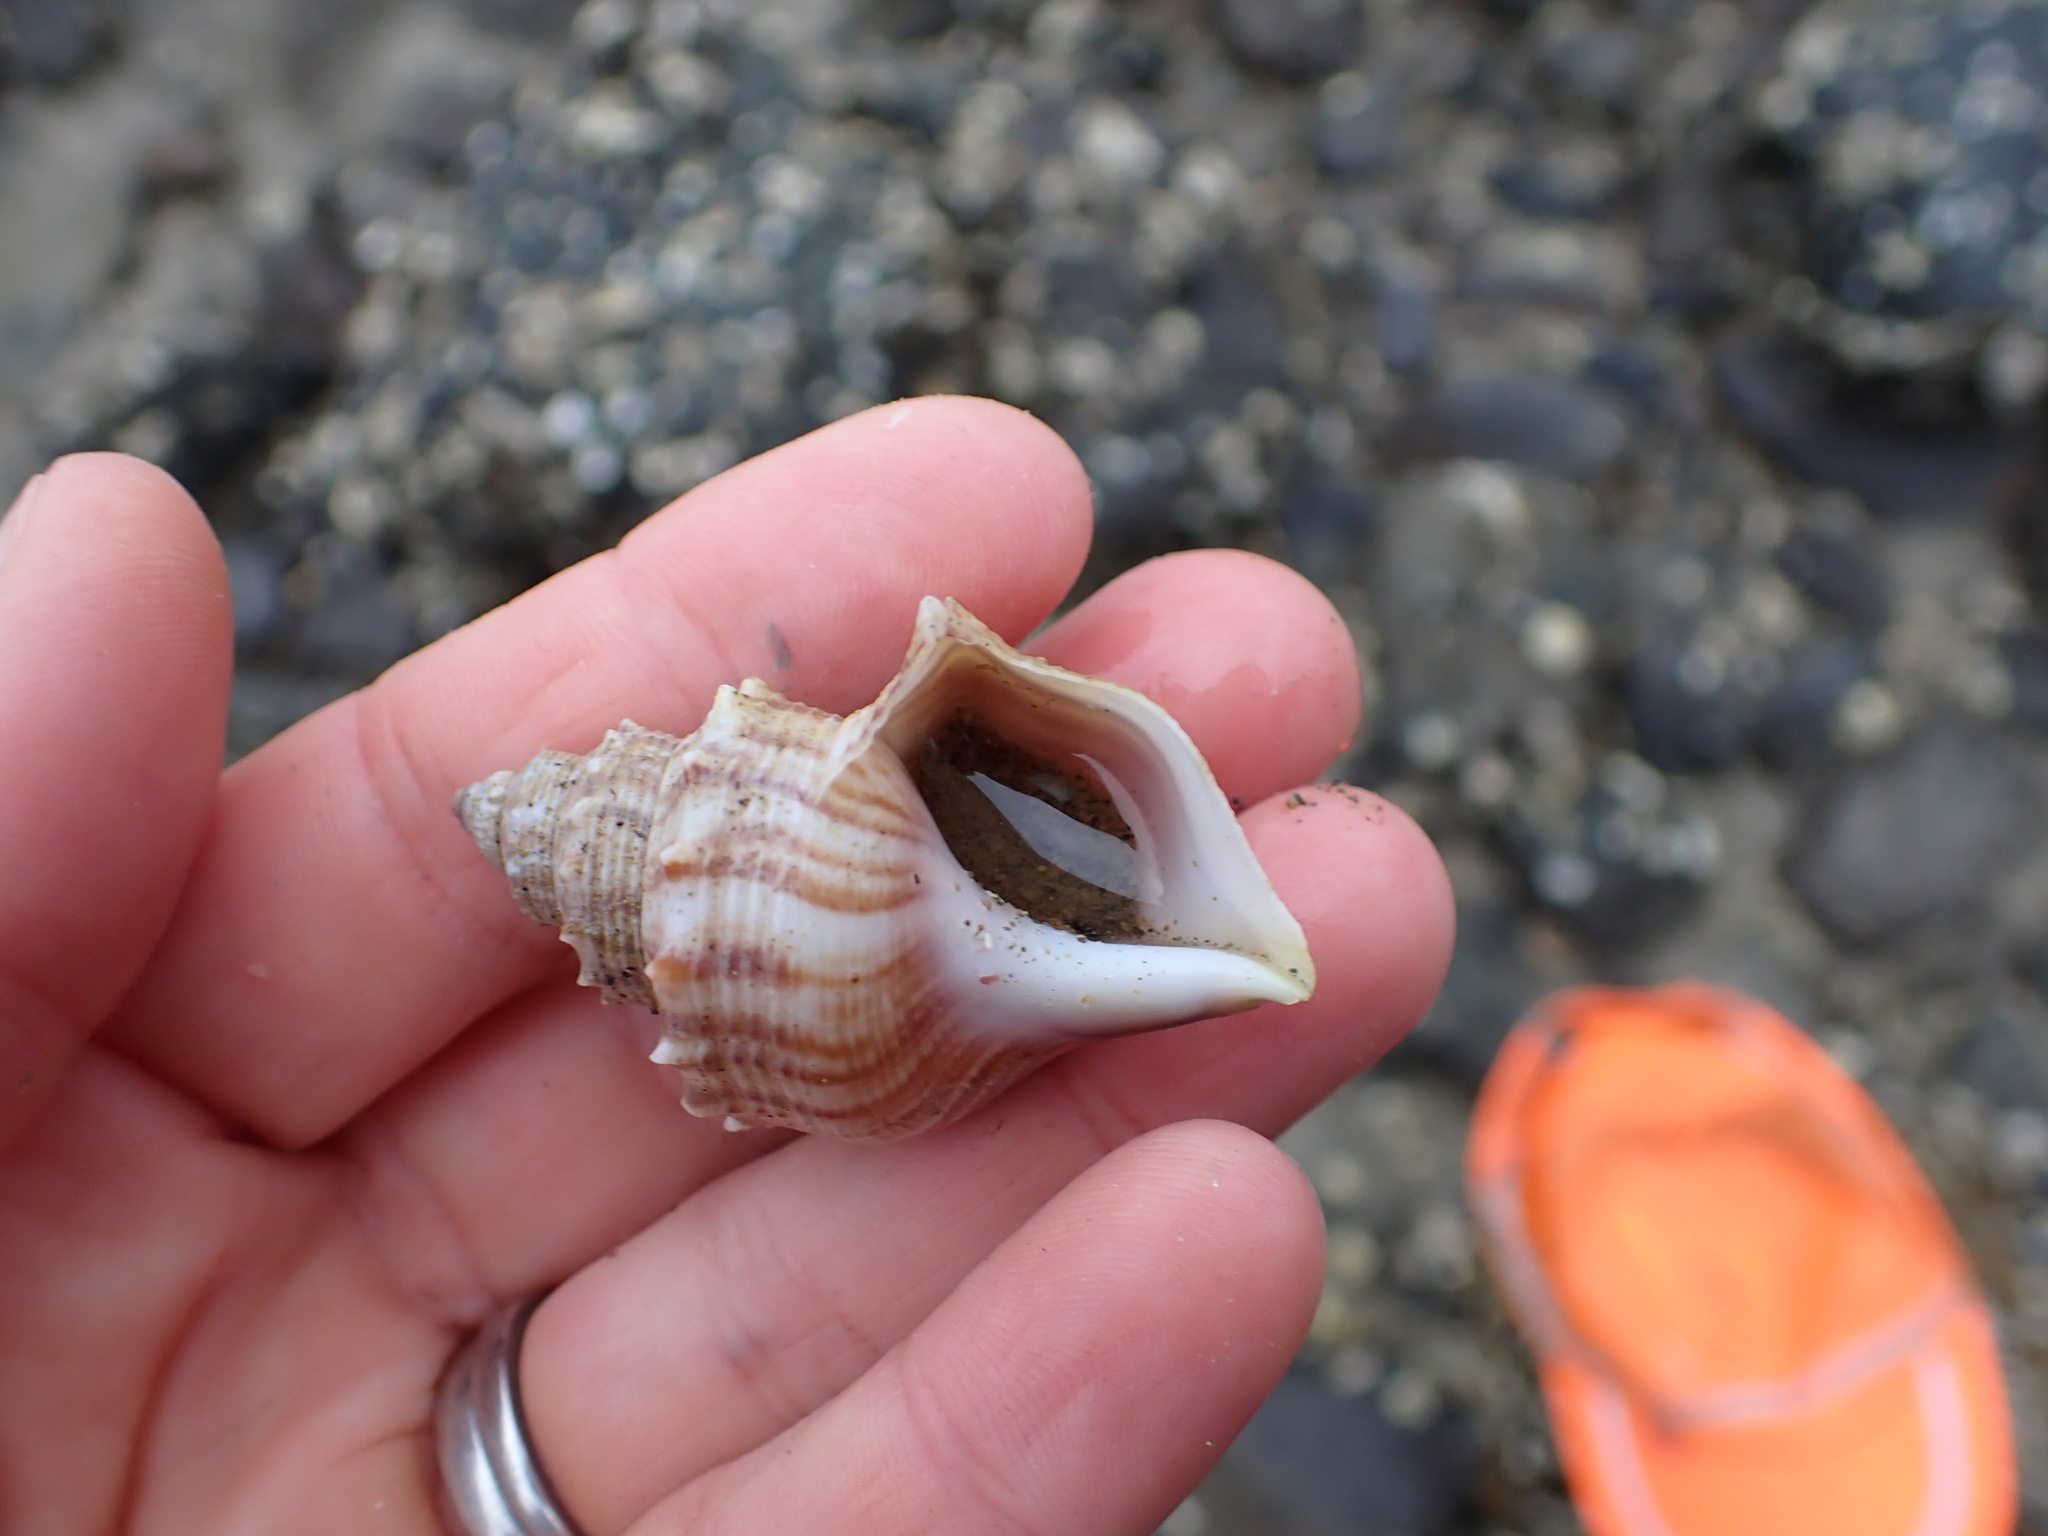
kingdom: Animalia
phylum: Mollusca
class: Gastropoda
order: Littorinimorpha
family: Struthiolariidae
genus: Struthiolaria
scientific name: Struthiolaria papulosa
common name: Large ostrich foot
